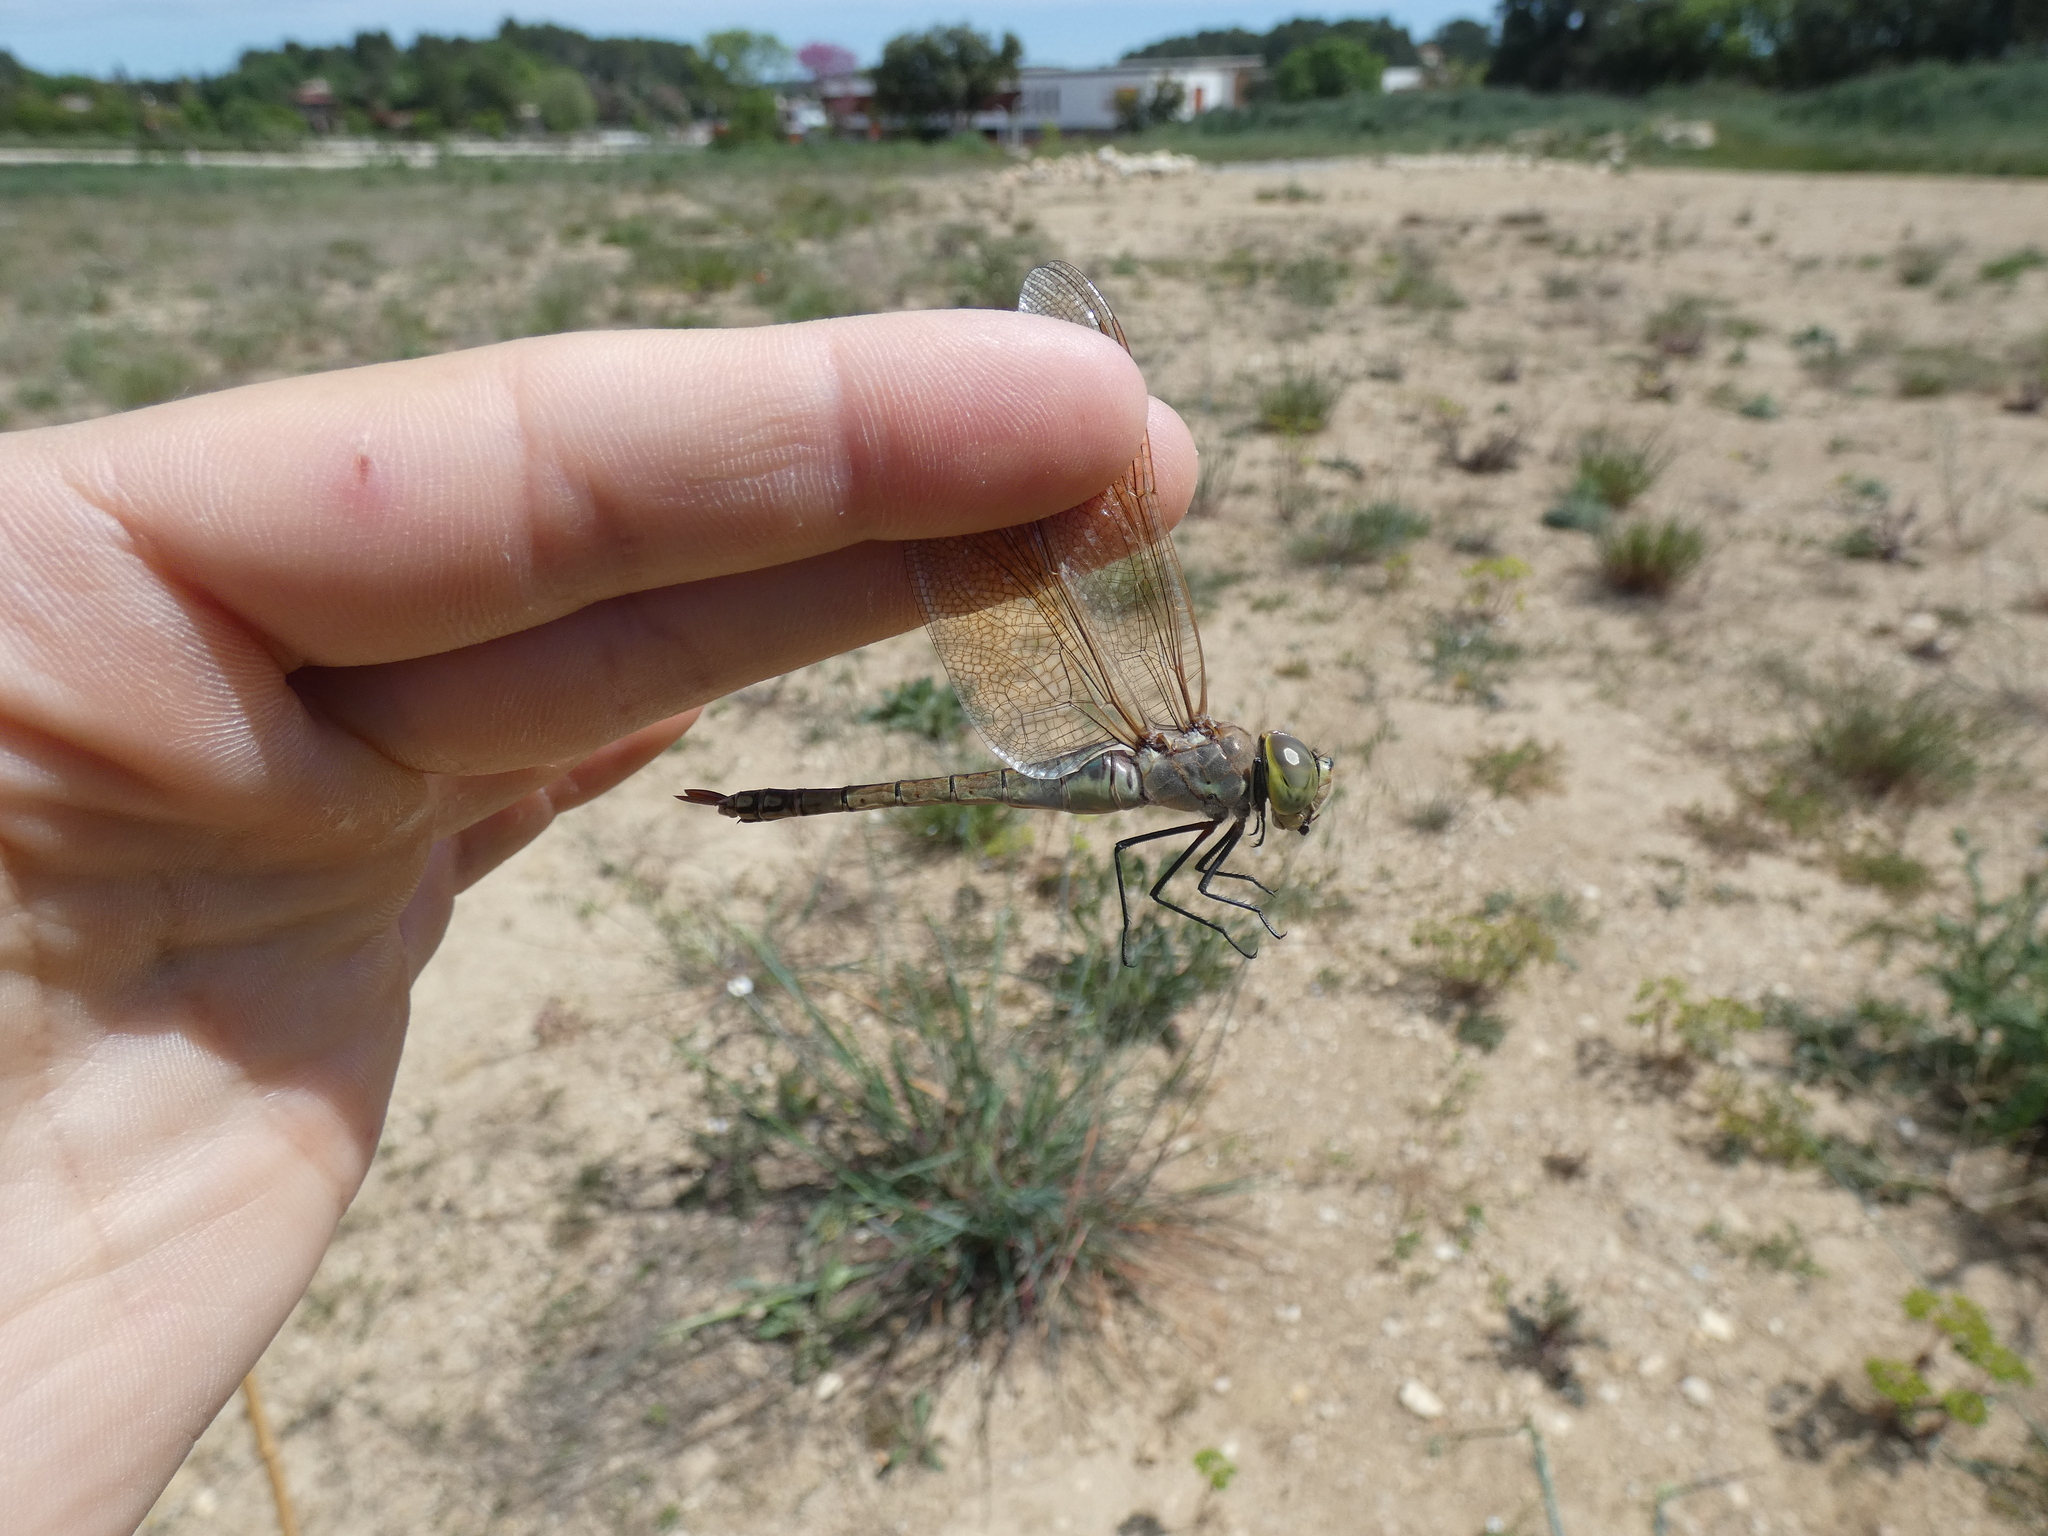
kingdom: Animalia
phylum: Arthropoda
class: Insecta
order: Odonata
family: Aeshnidae
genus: Anax
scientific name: Anax ephippiger
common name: Vagrant emperor
